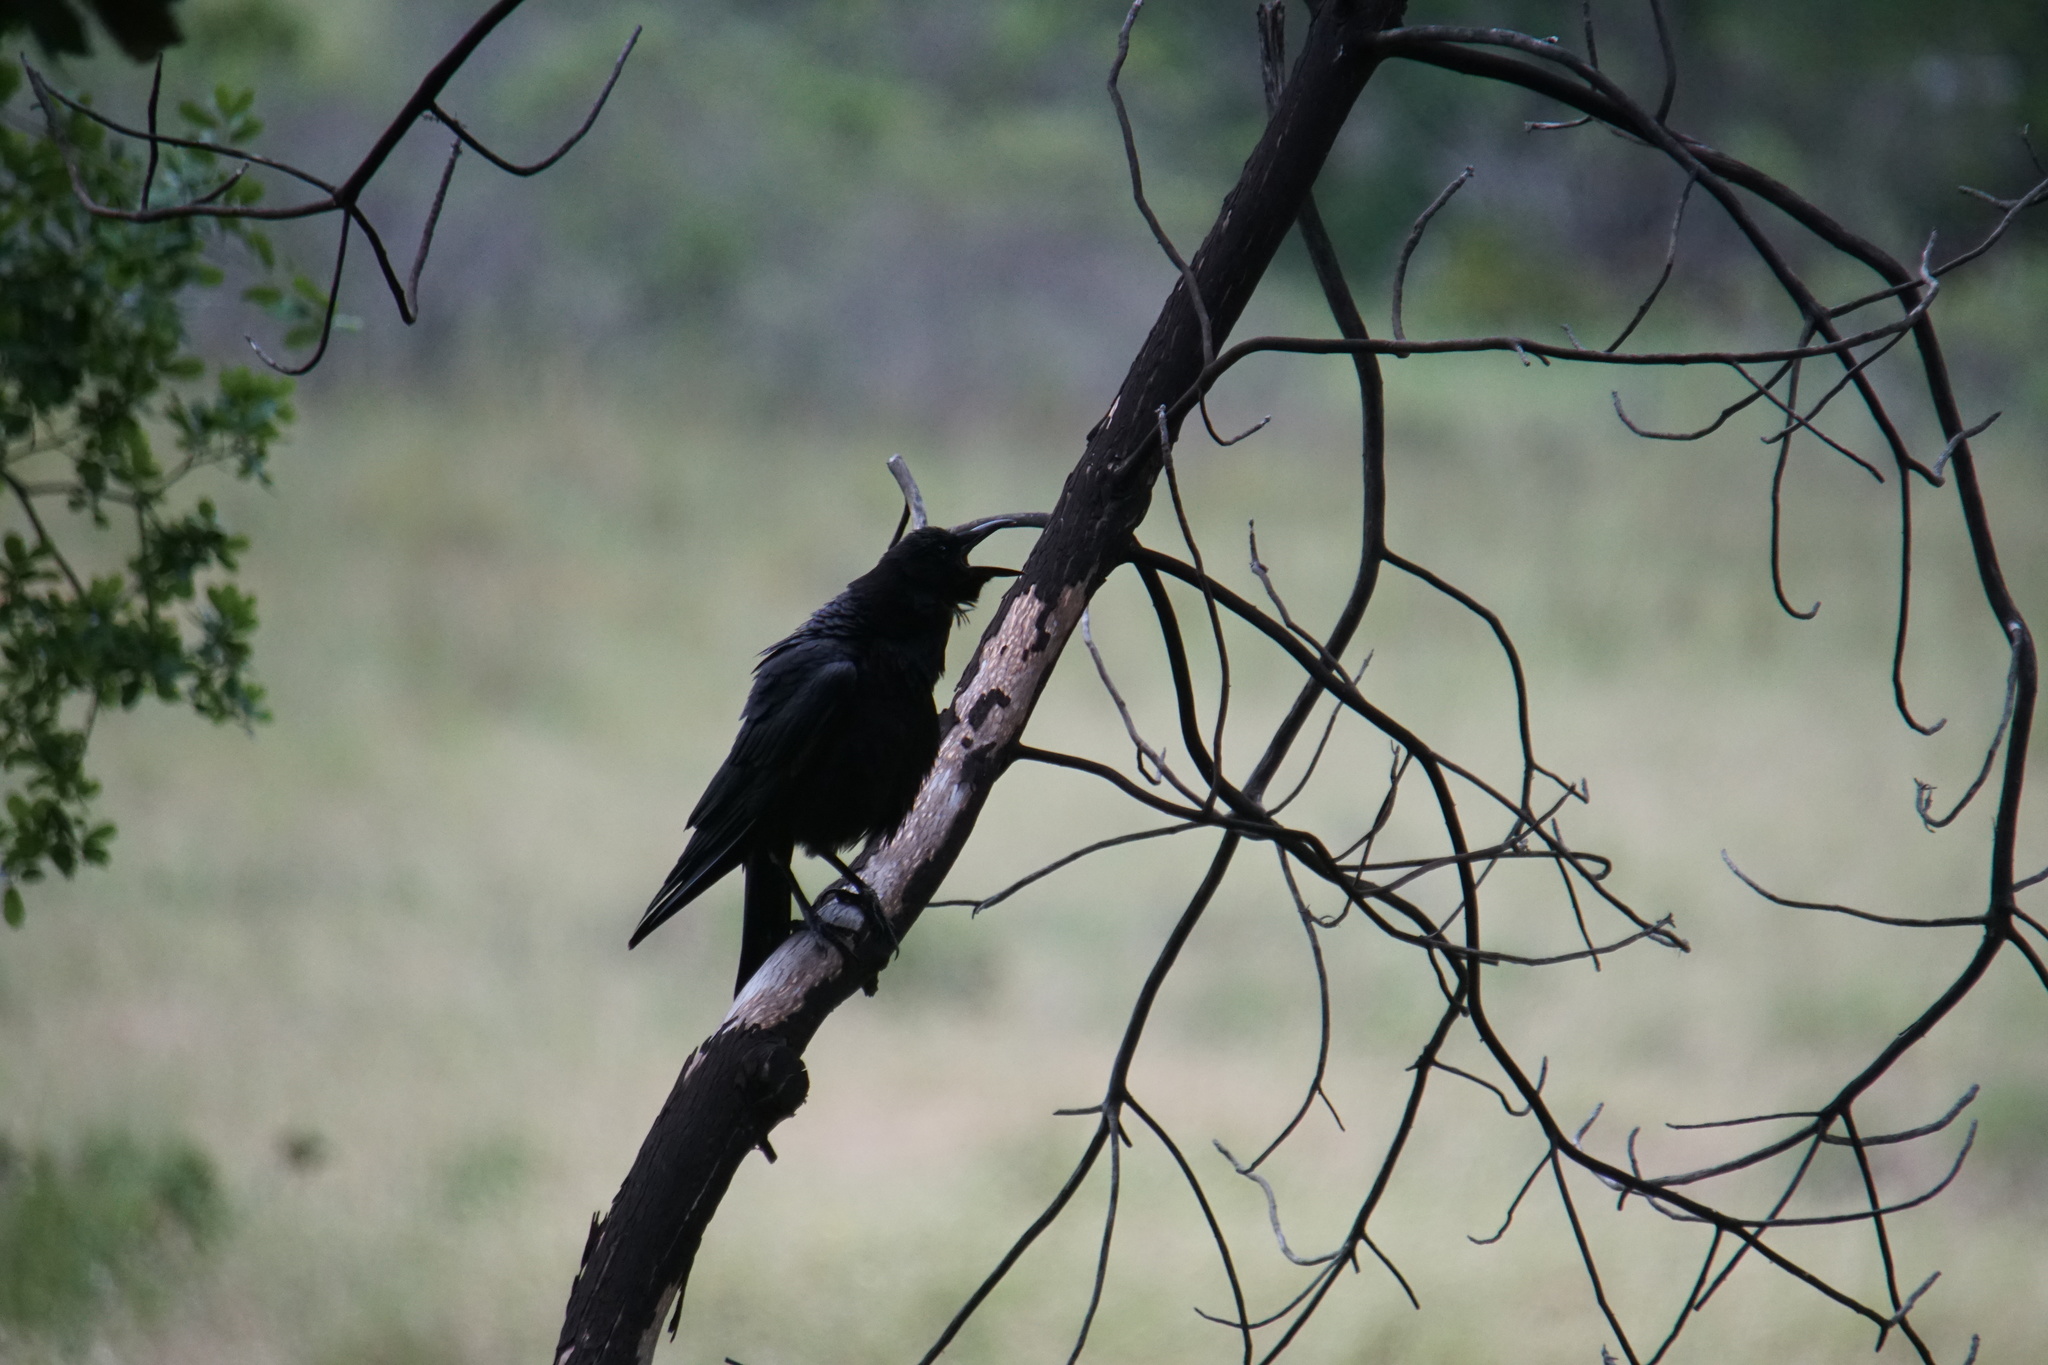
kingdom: Animalia
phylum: Chordata
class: Aves
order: Passeriformes
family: Corvidae
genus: Corvus
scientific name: Corvus brachyrhynchos
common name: American crow
